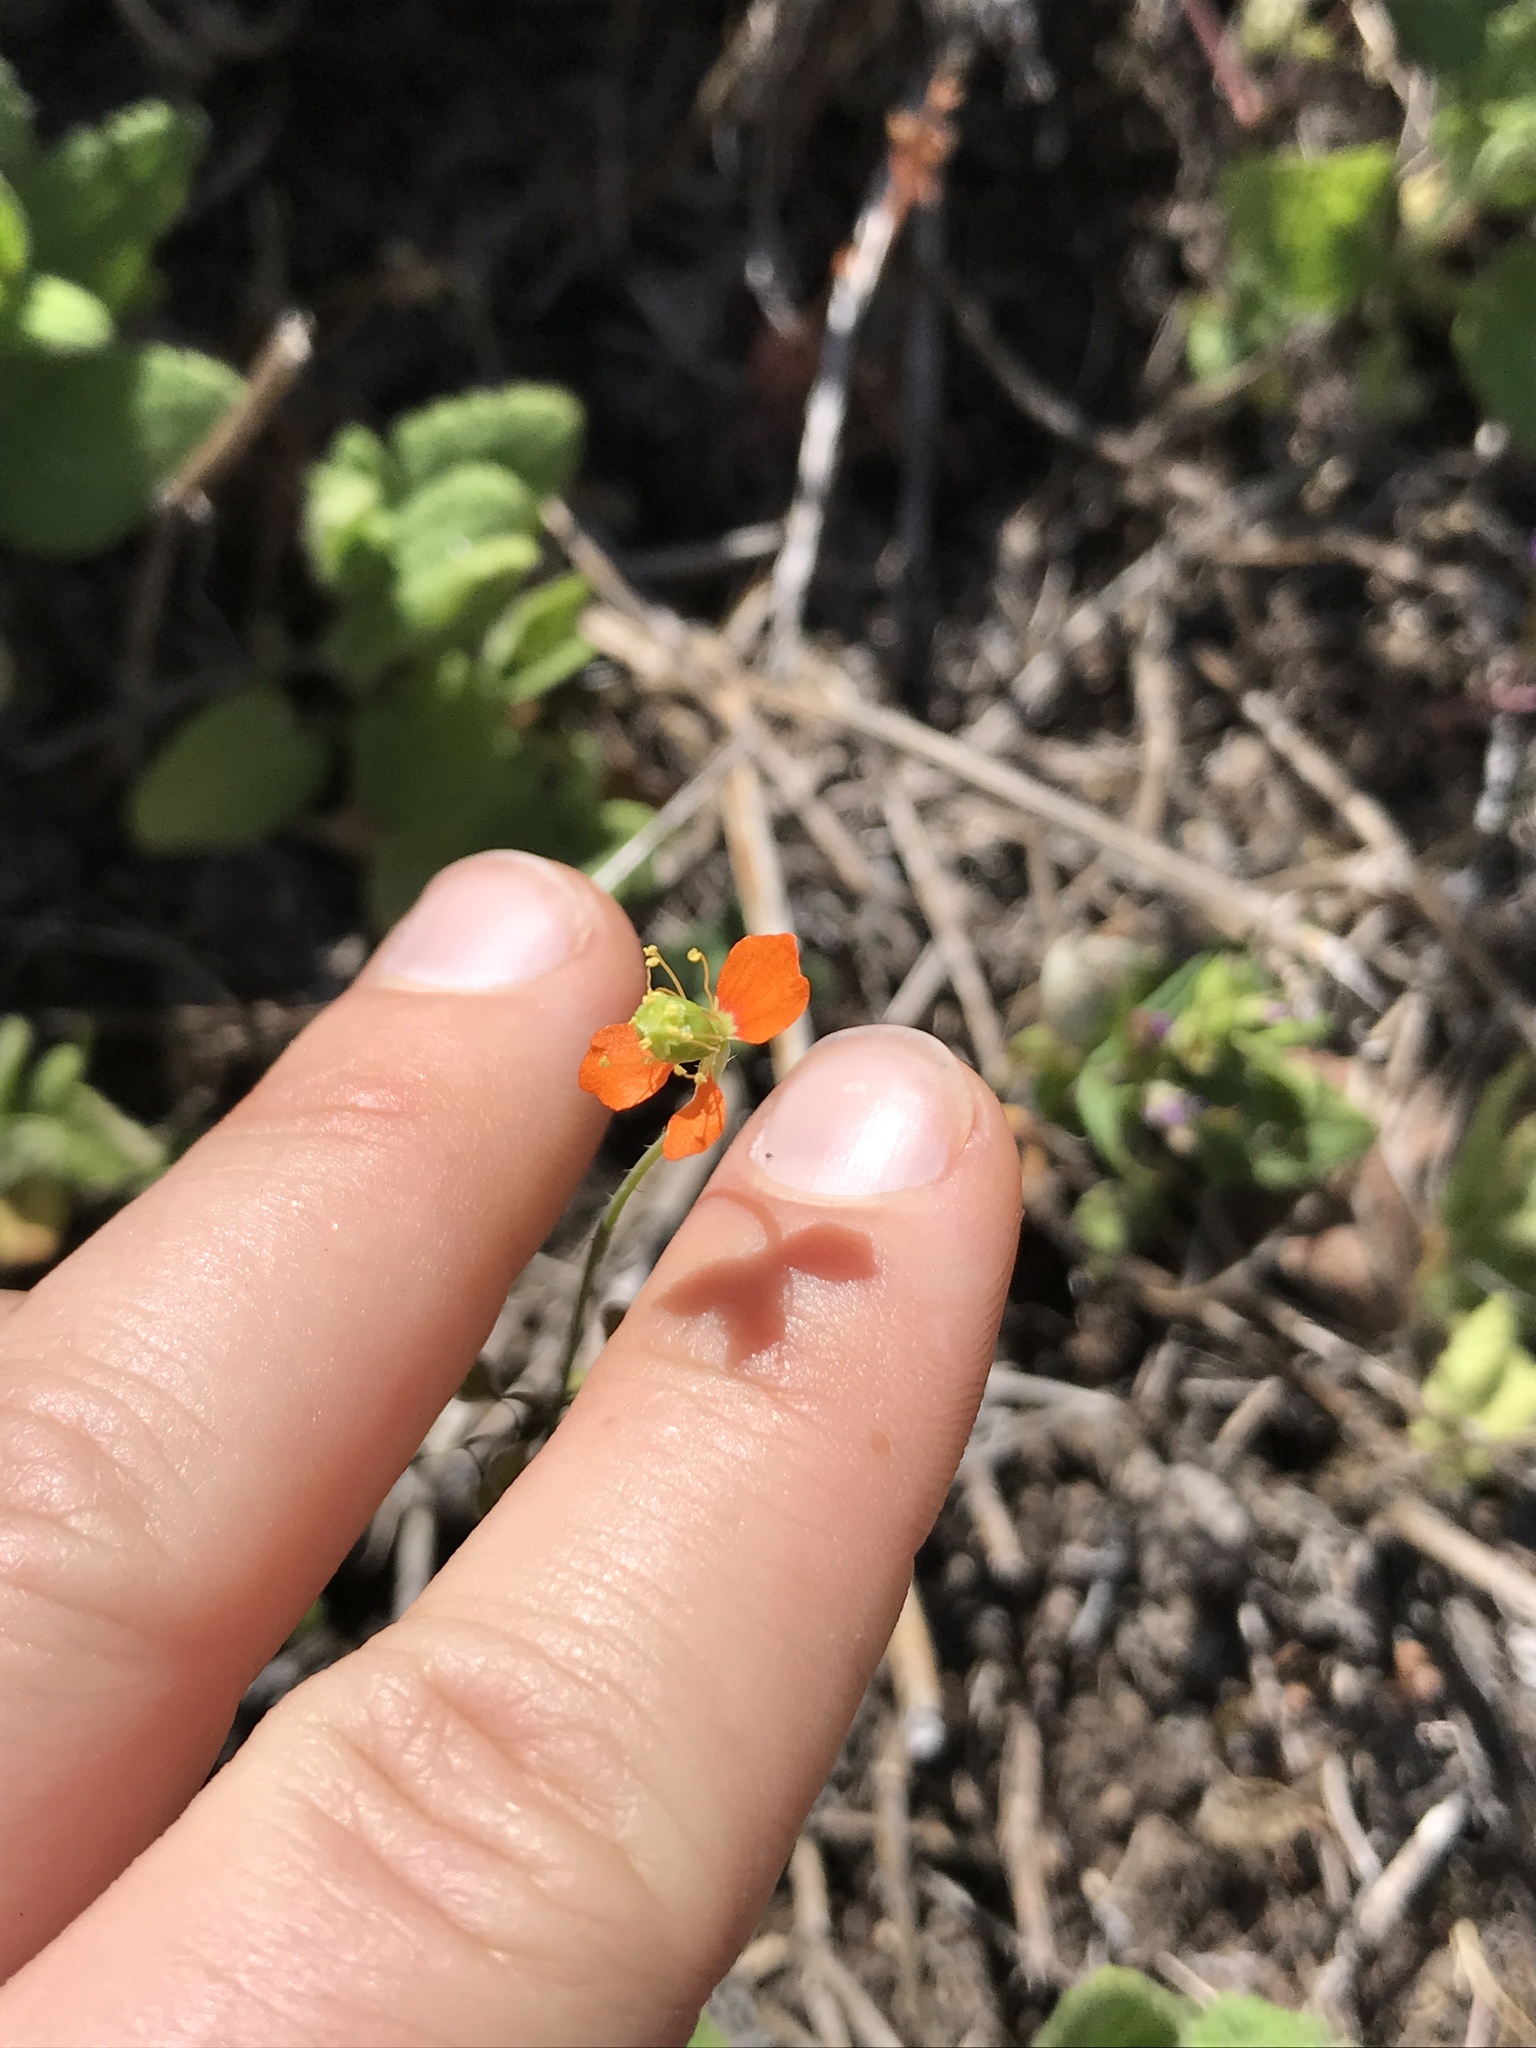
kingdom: Plantae
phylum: Tracheophyta
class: Magnoliopsida
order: Ranunculales
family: Papaveraceae
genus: Papaver
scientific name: Papaver californicum
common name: Fire poppy
